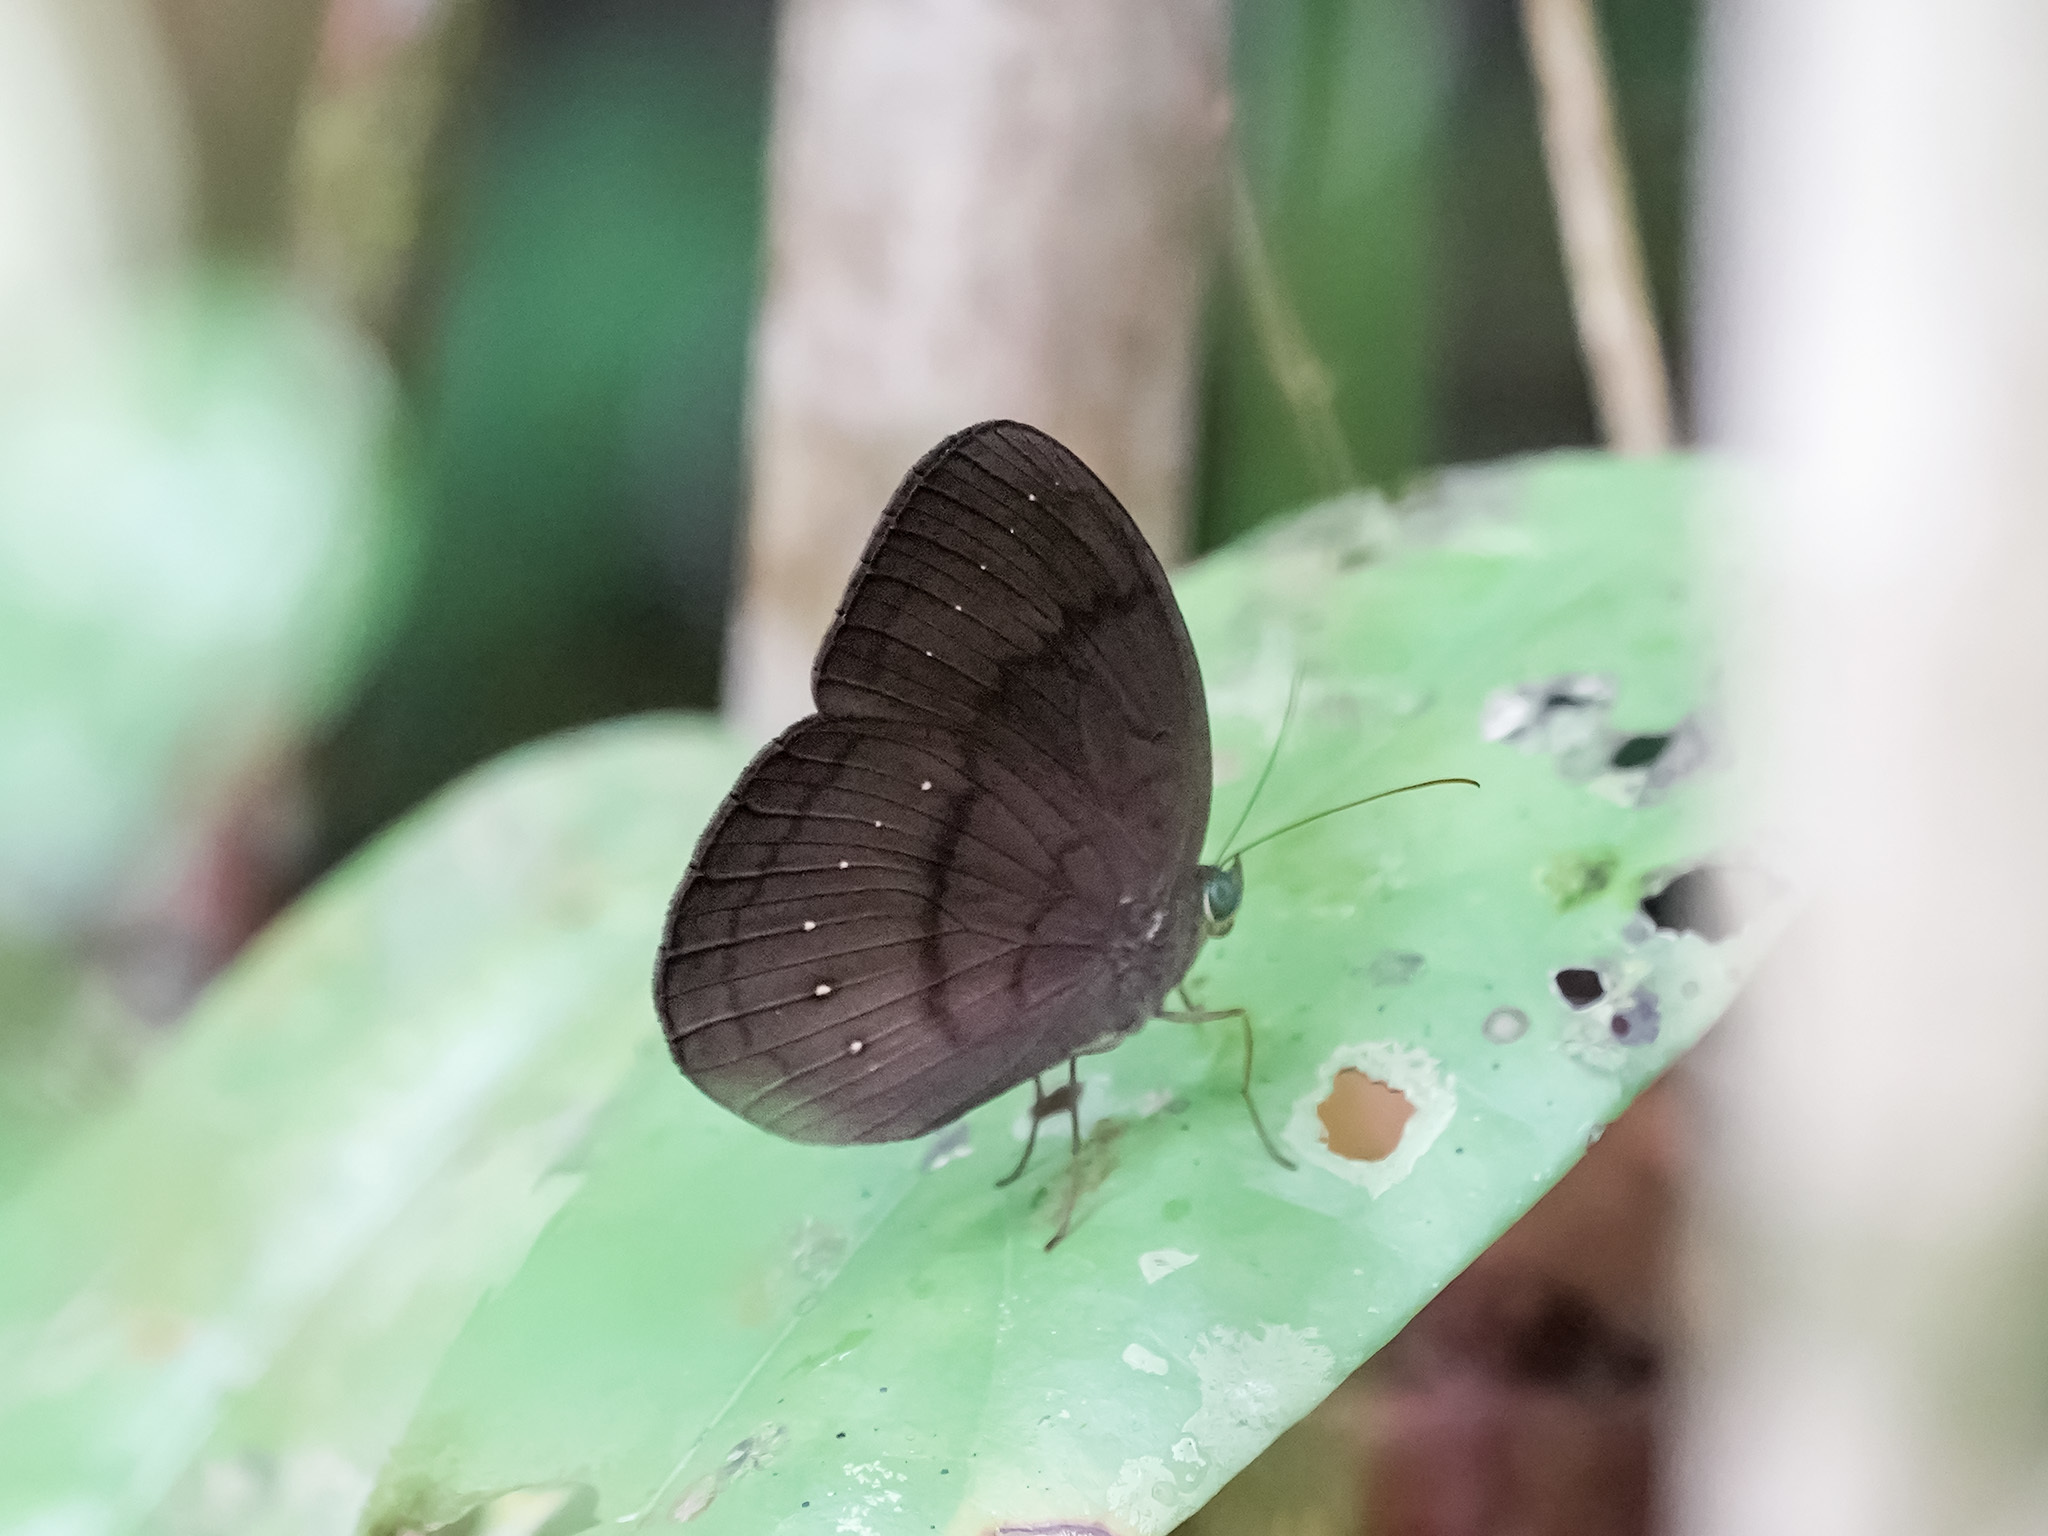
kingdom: Animalia
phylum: Arthropoda
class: Insecta
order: Lepidoptera
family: Nymphalidae
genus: Faunis
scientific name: Faunis canens
